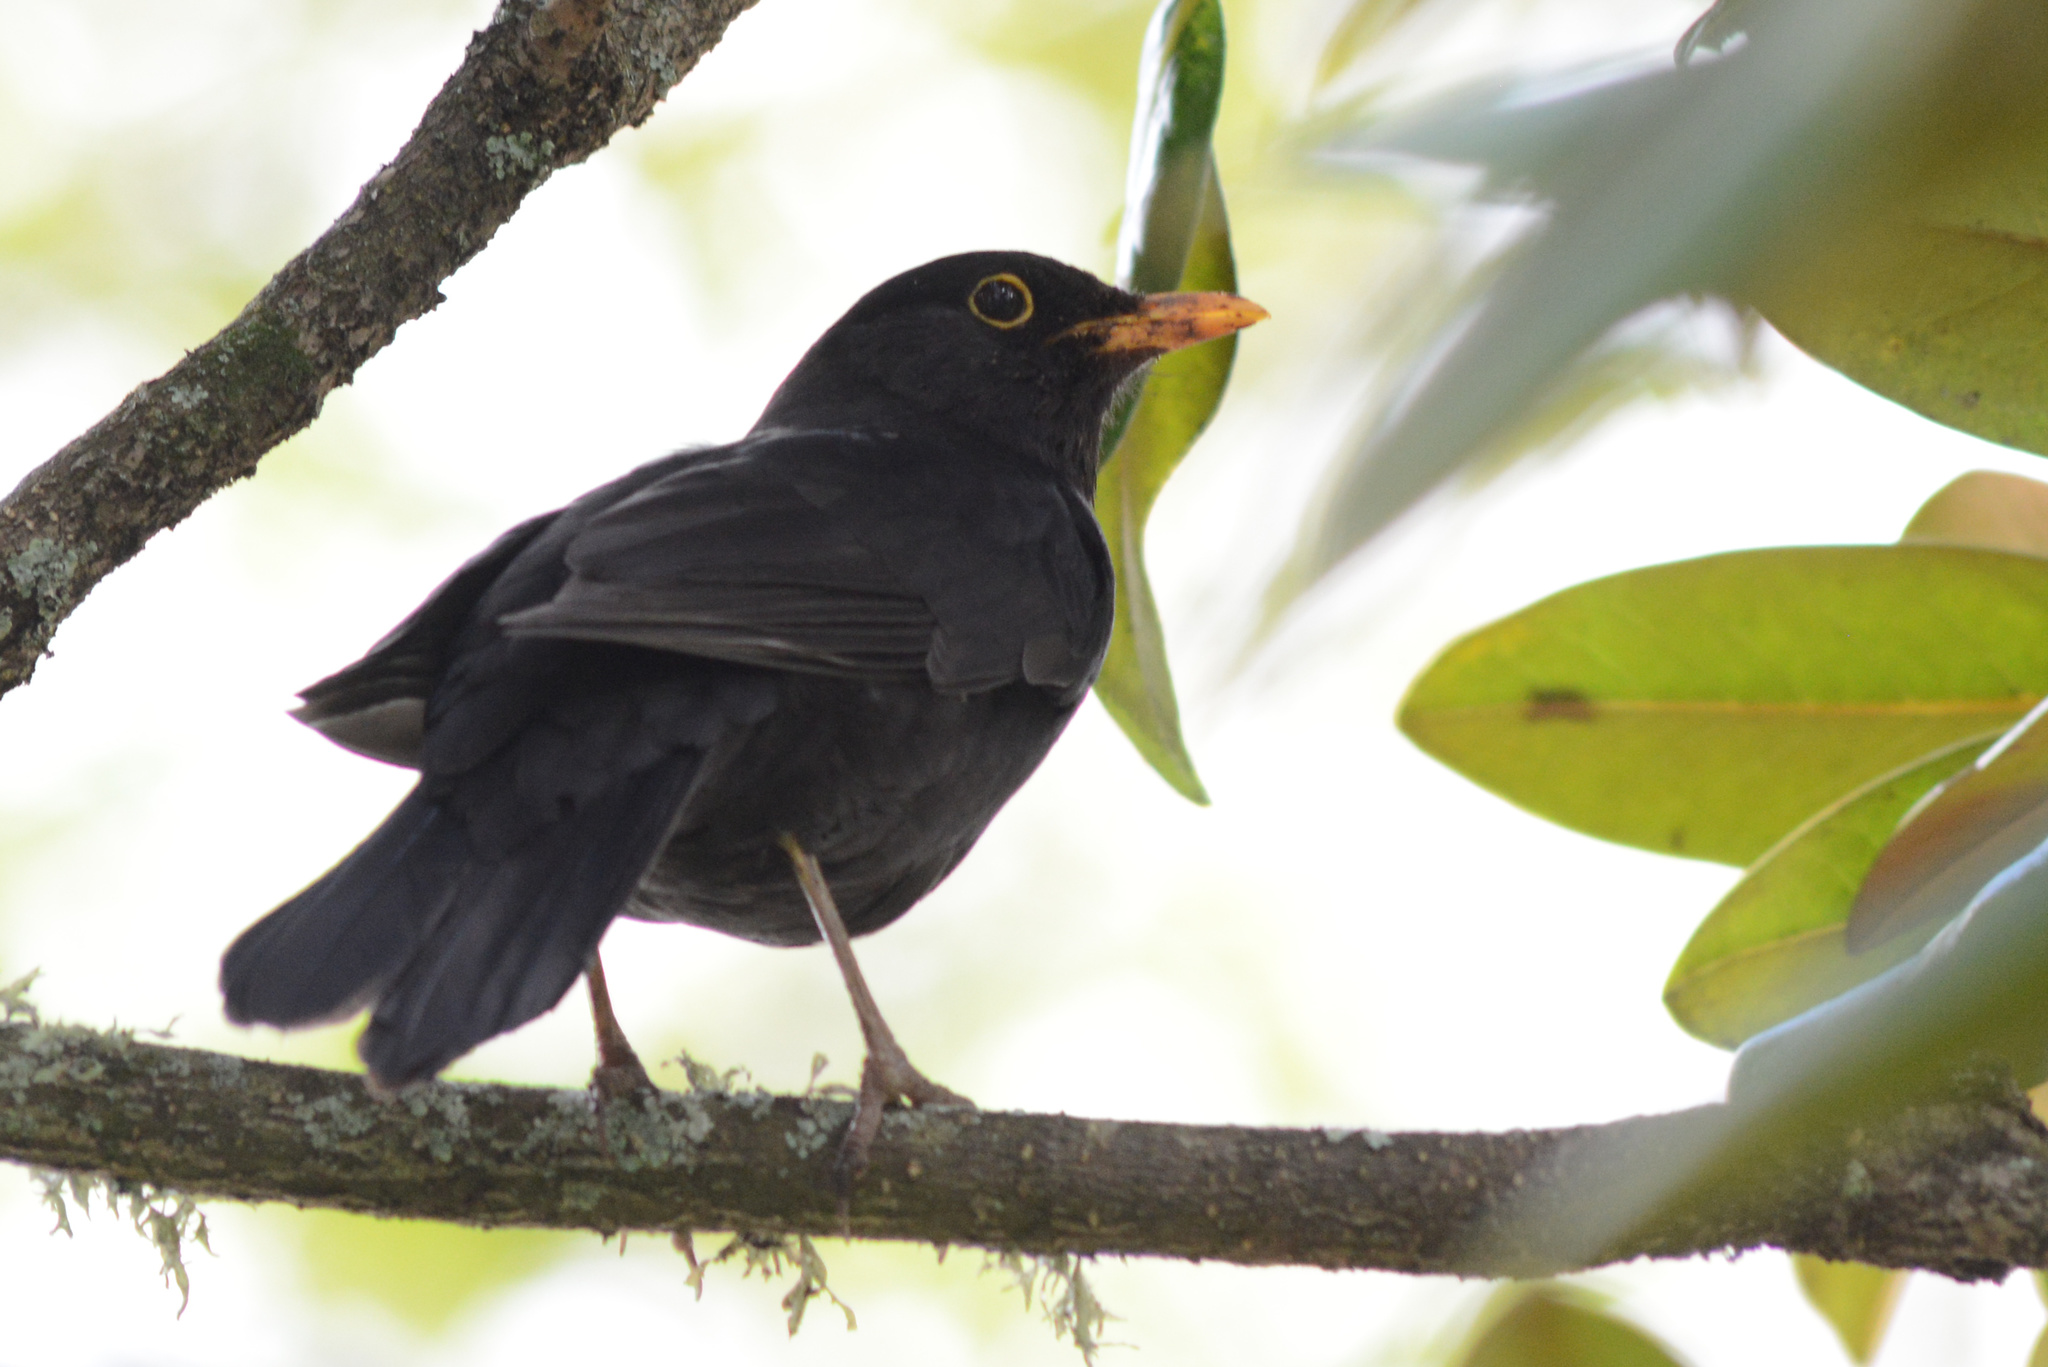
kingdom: Animalia
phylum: Chordata
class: Aves
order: Passeriformes
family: Turdidae
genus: Turdus
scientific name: Turdus merula
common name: Common blackbird
